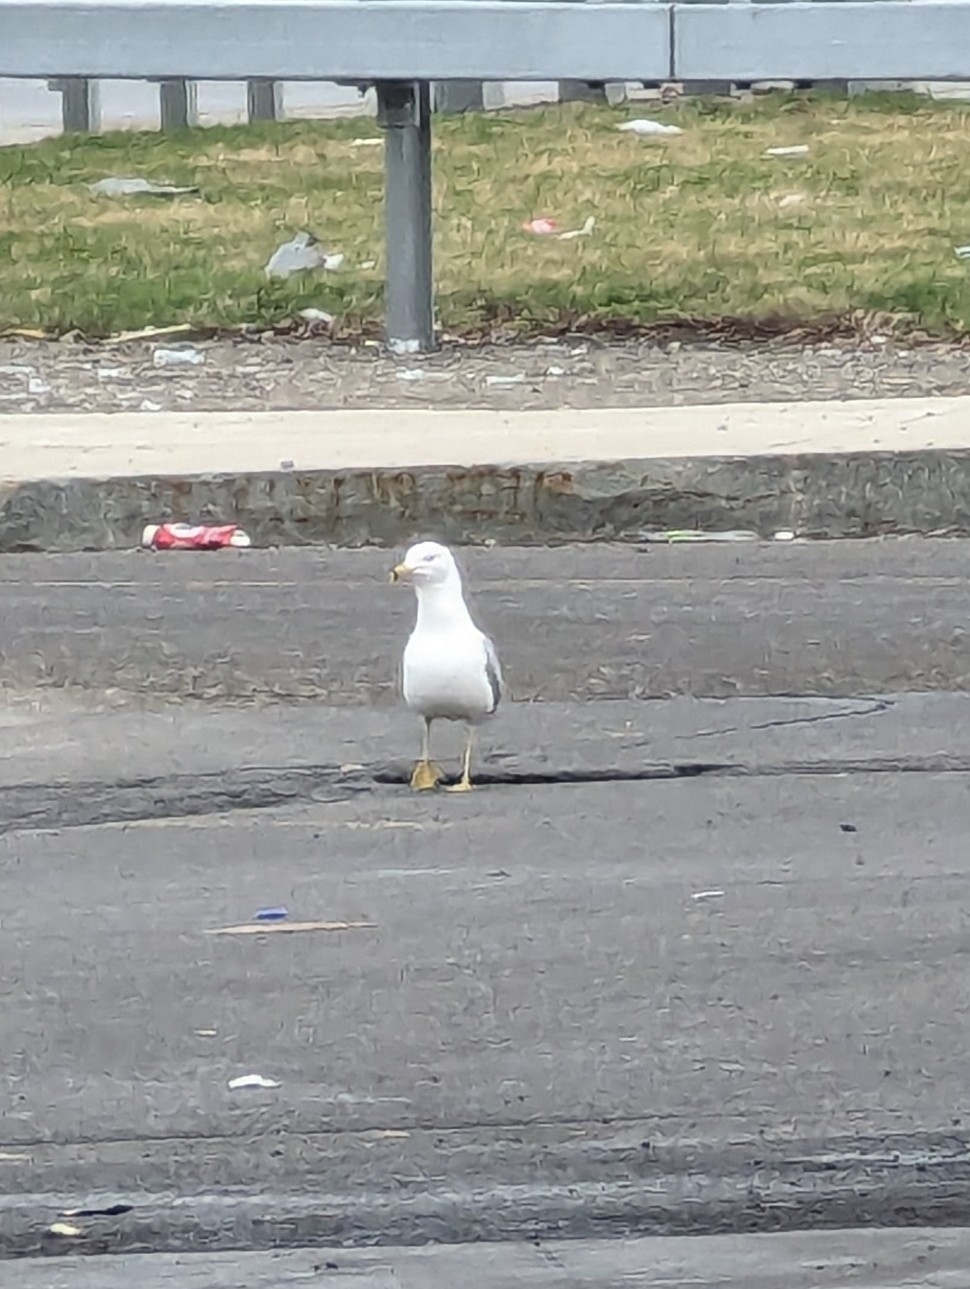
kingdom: Animalia
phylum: Chordata
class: Aves
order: Charadriiformes
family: Laridae
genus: Larus
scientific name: Larus delawarensis
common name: Ring-billed gull
